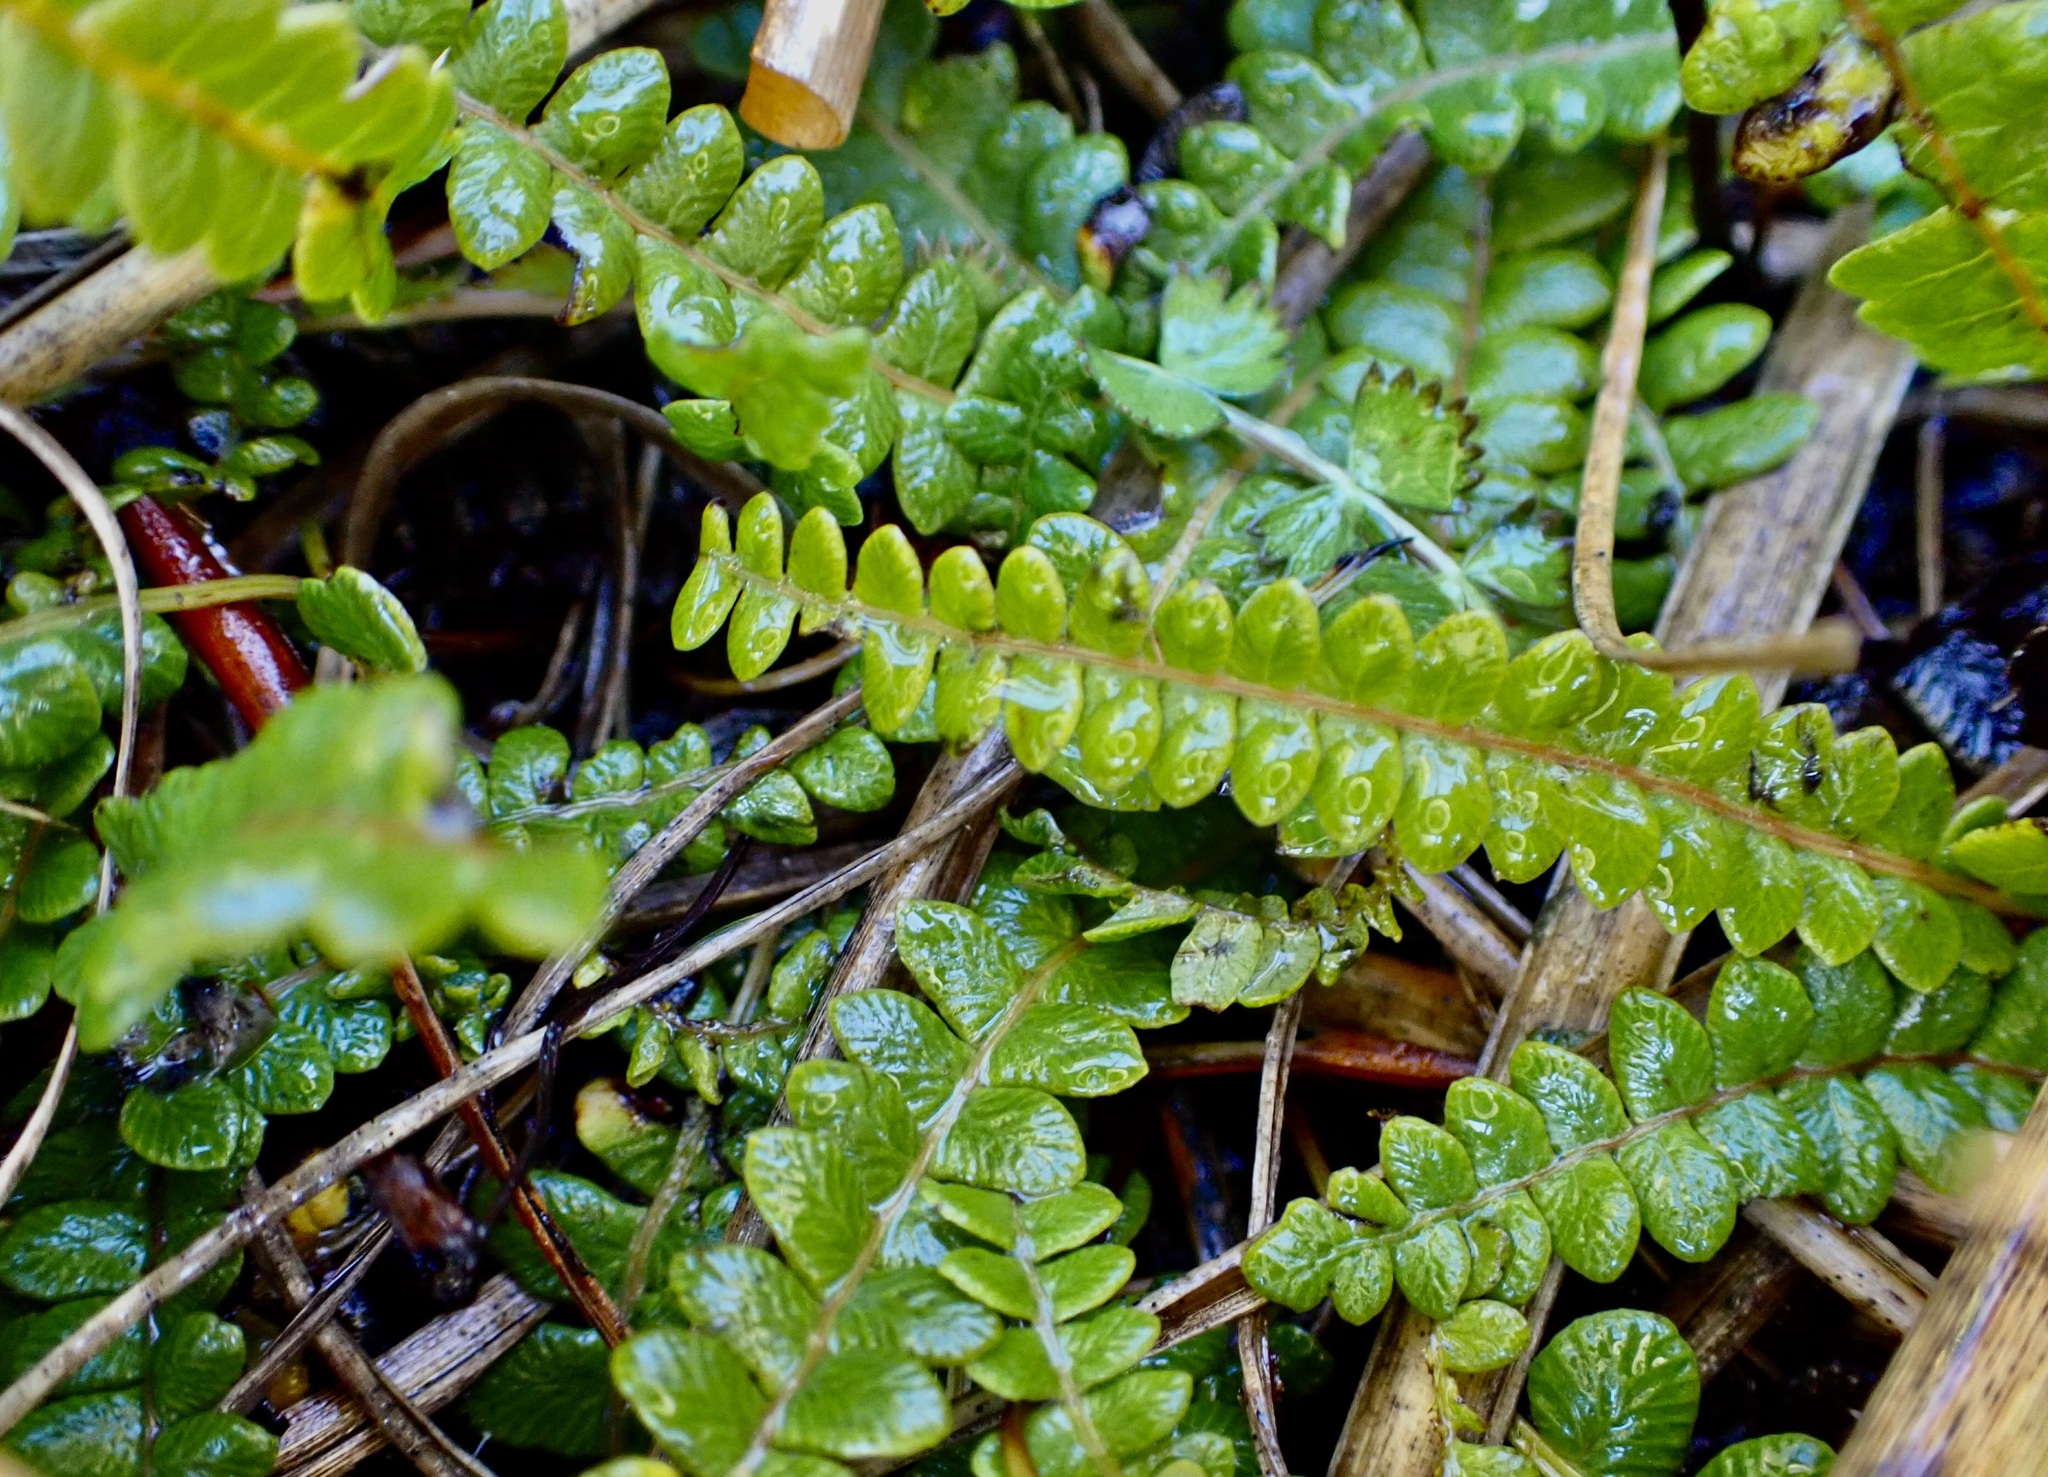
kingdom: Plantae
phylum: Tracheophyta
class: Polypodiopsida
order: Polypodiales
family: Blechnaceae
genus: Austroblechnum
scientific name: Austroblechnum penna-marina
